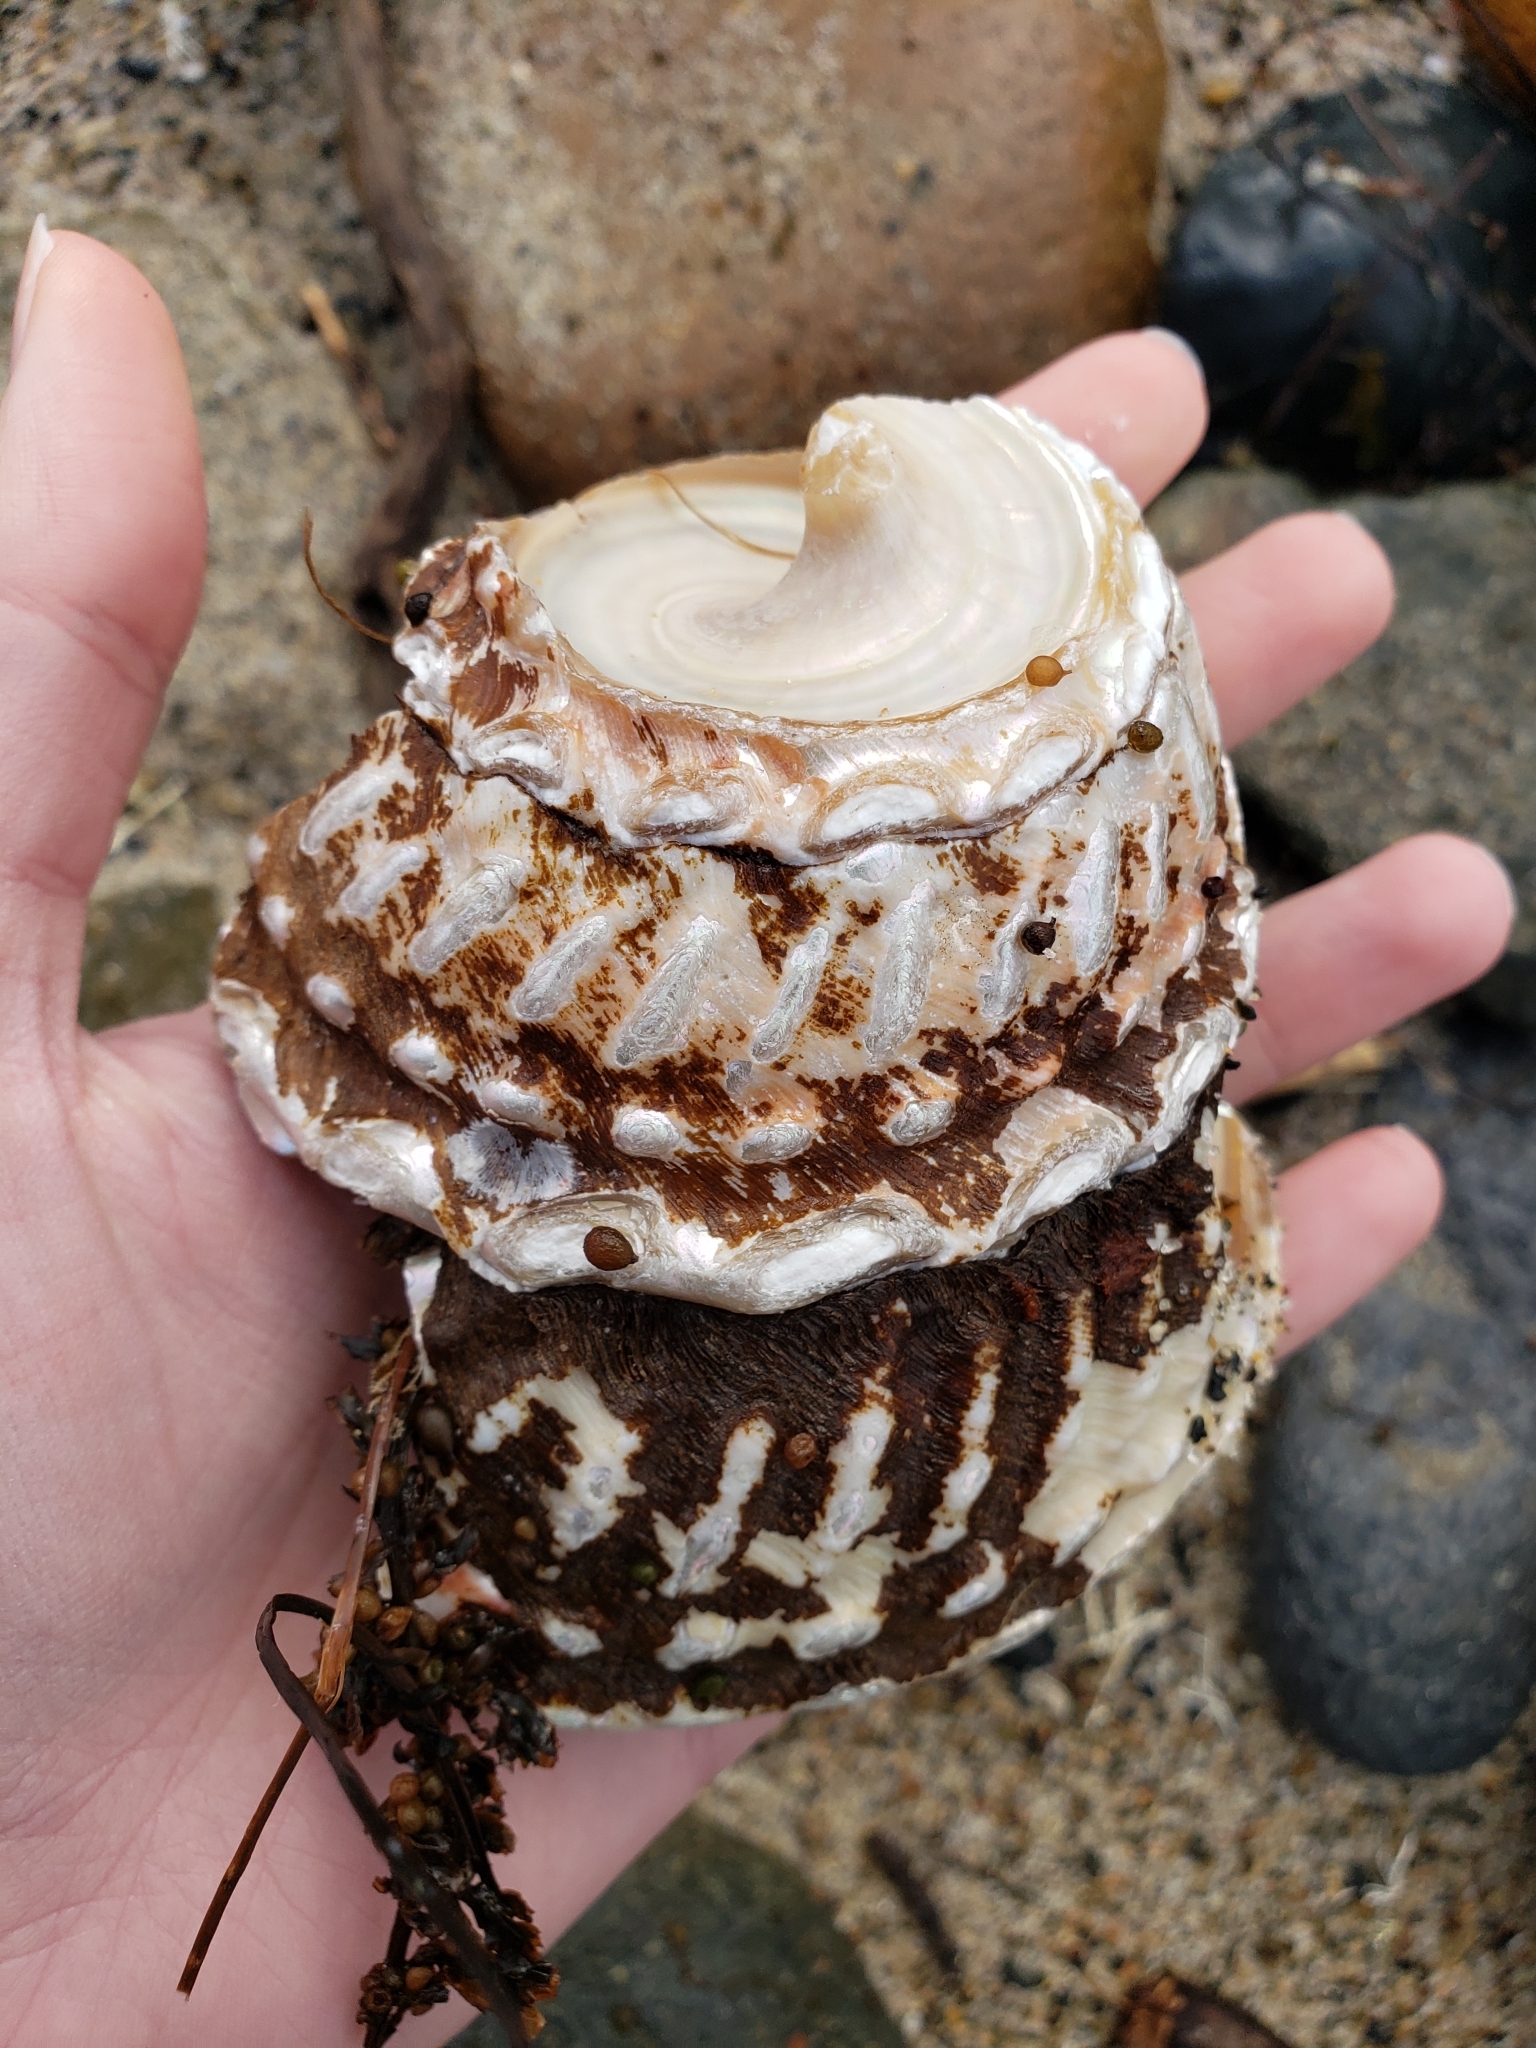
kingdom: Animalia
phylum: Mollusca
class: Gastropoda
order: Trochida
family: Turbinidae
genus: Megastraea
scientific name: Megastraea undosa
